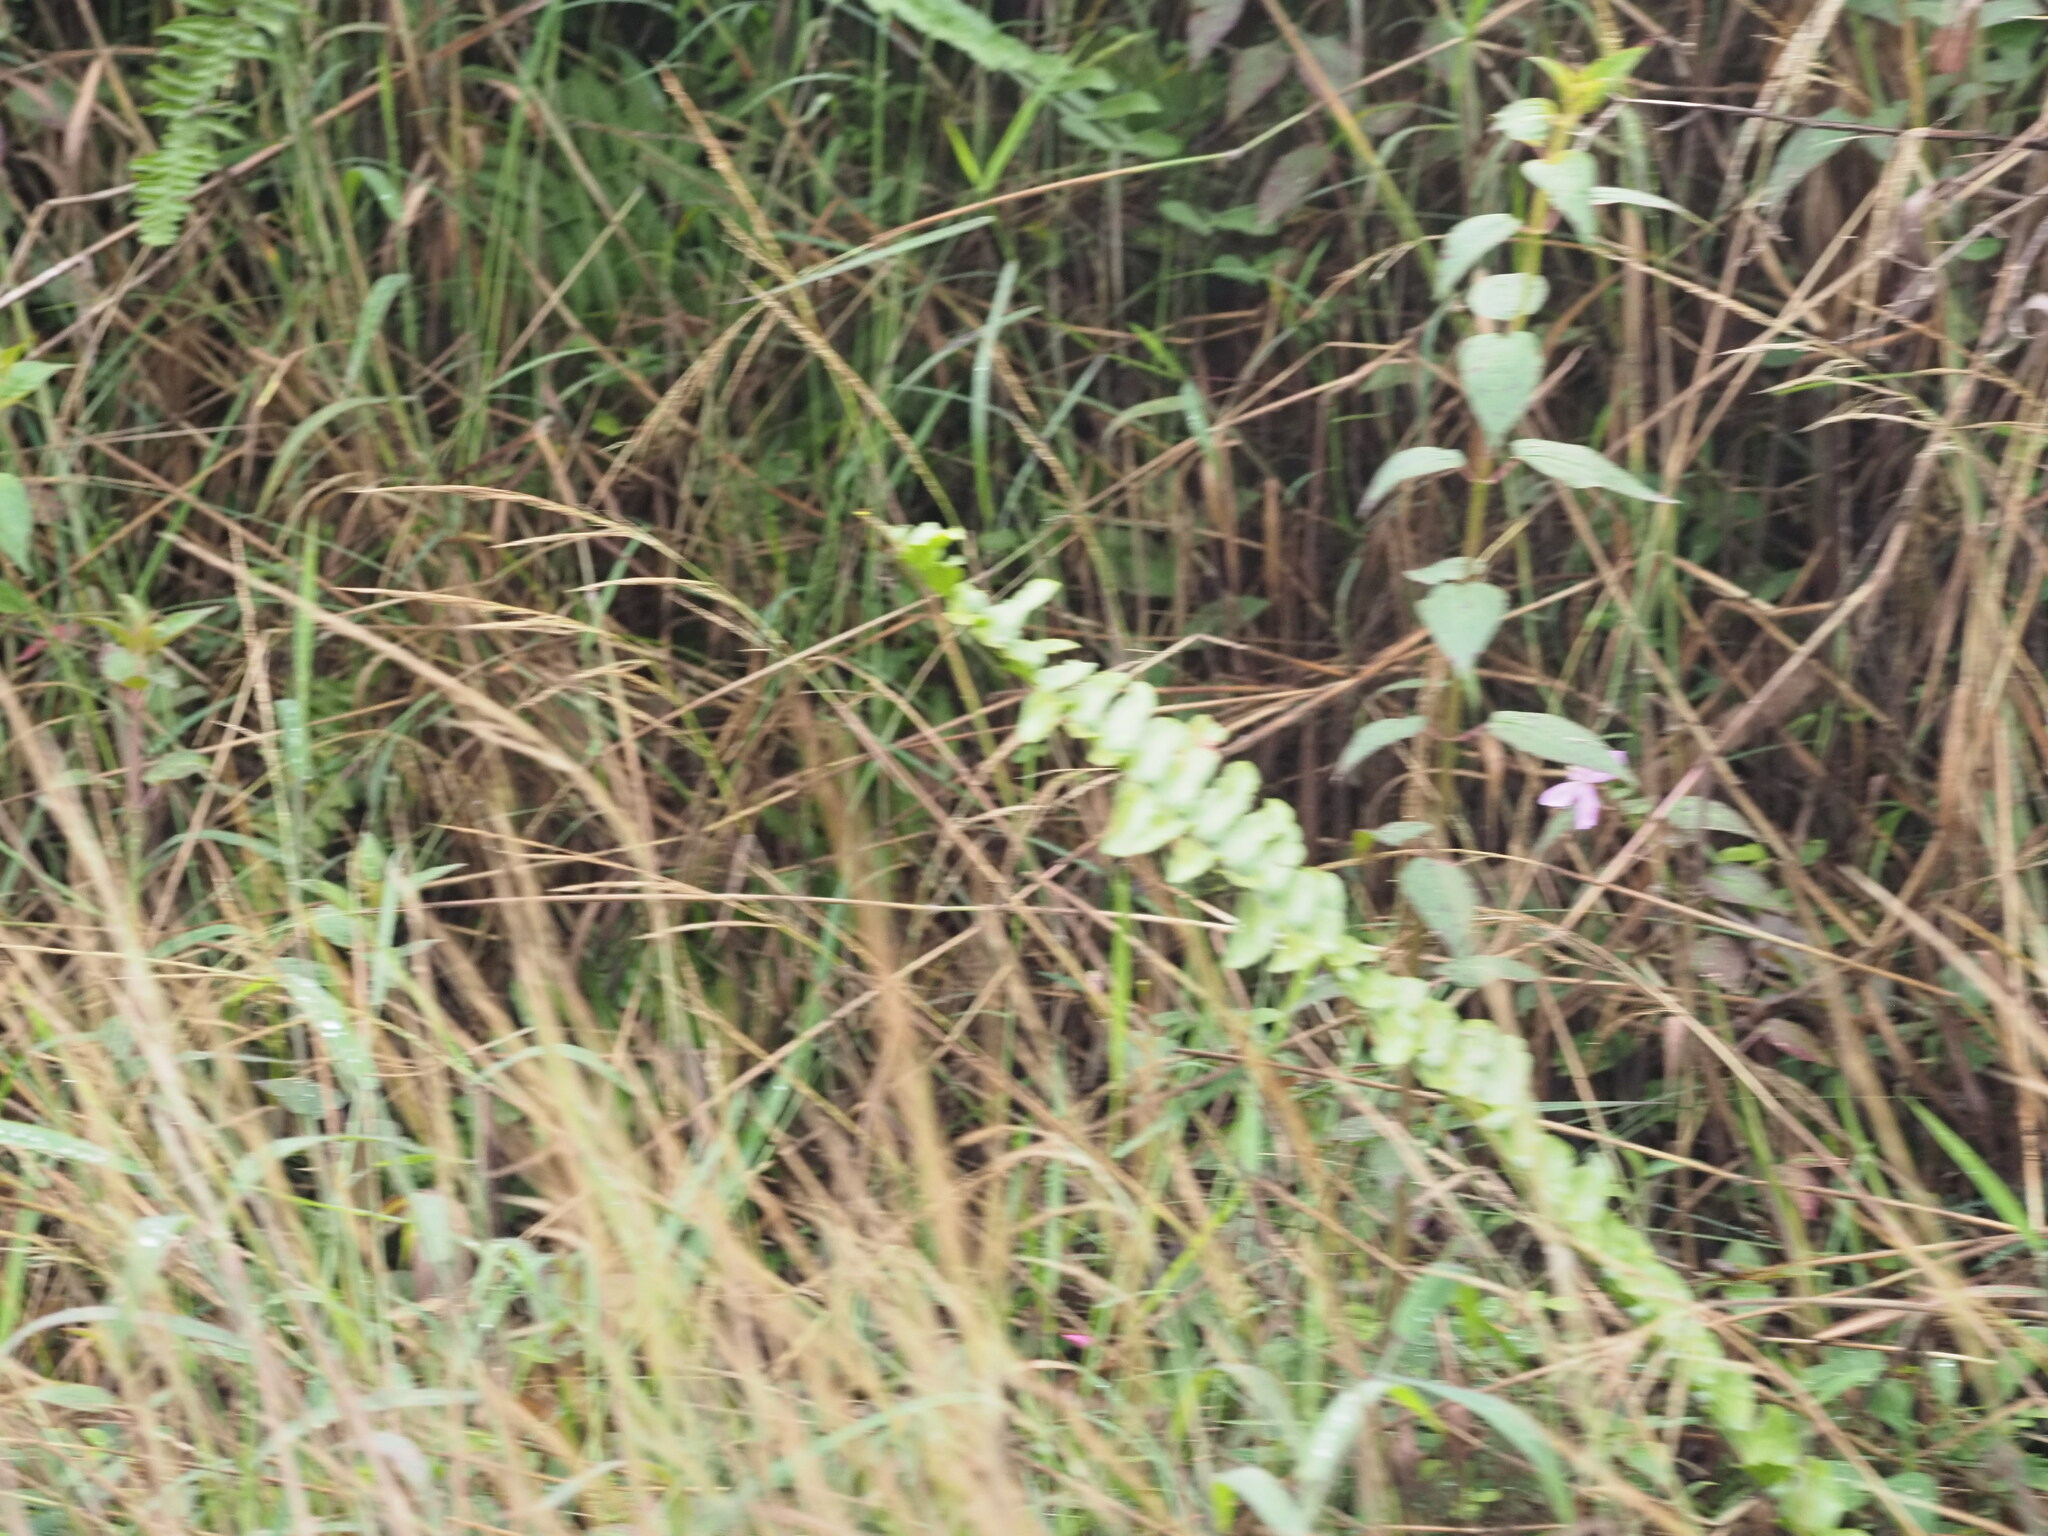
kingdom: Plantae
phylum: Tracheophyta
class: Liliopsida
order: Poales
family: Poaceae
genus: Melinis
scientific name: Melinis minutiflora
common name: Molassesgrass
